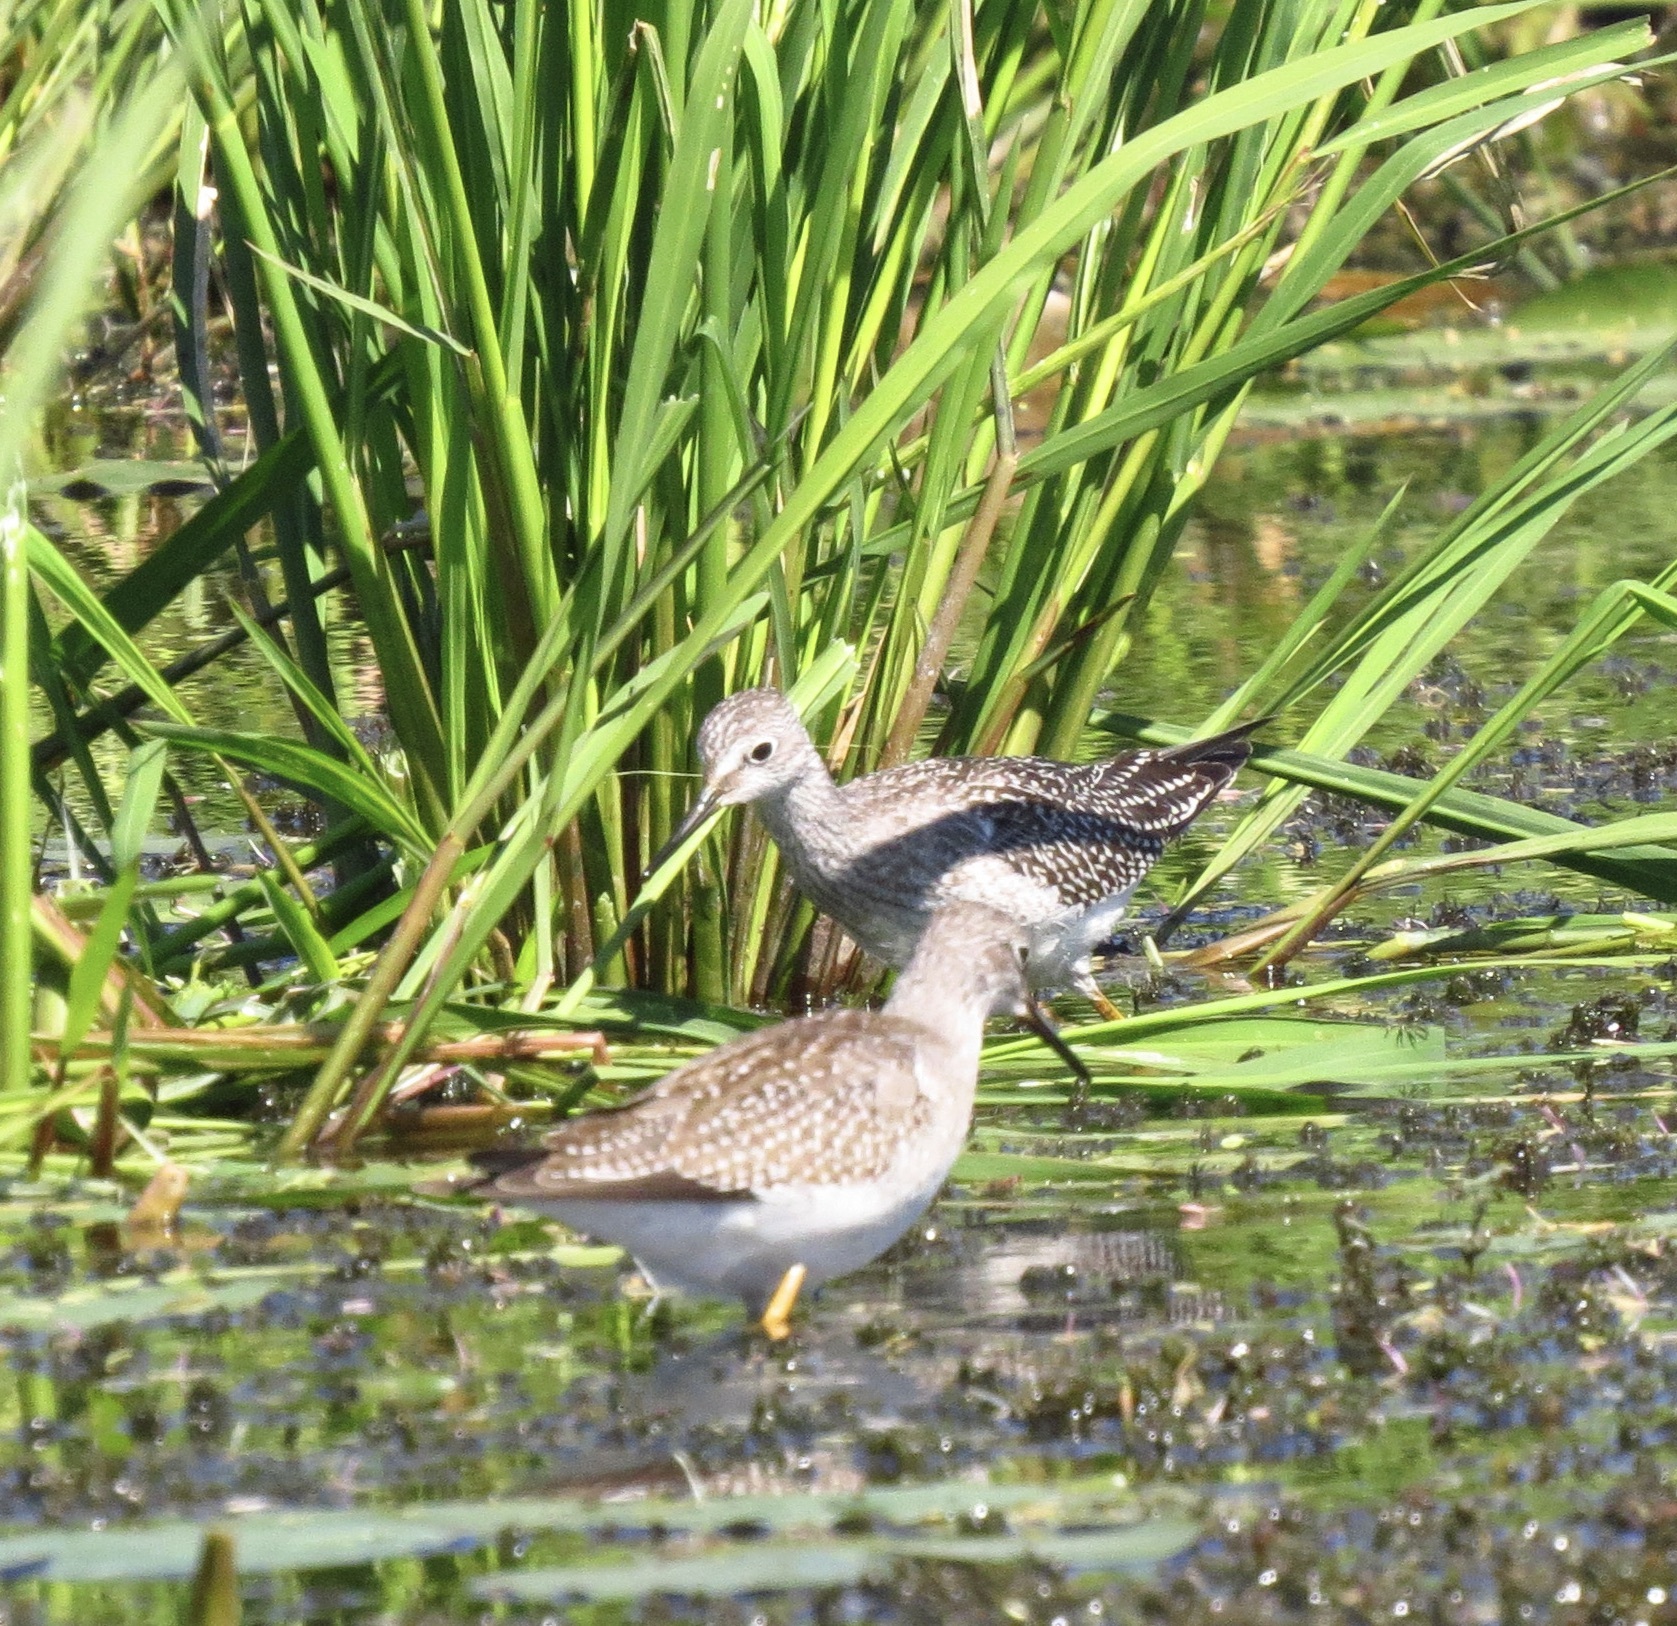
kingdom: Animalia
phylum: Chordata
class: Aves
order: Charadriiformes
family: Scolopacidae
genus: Tringa
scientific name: Tringa flavipes
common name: Lesser yellowlegs
